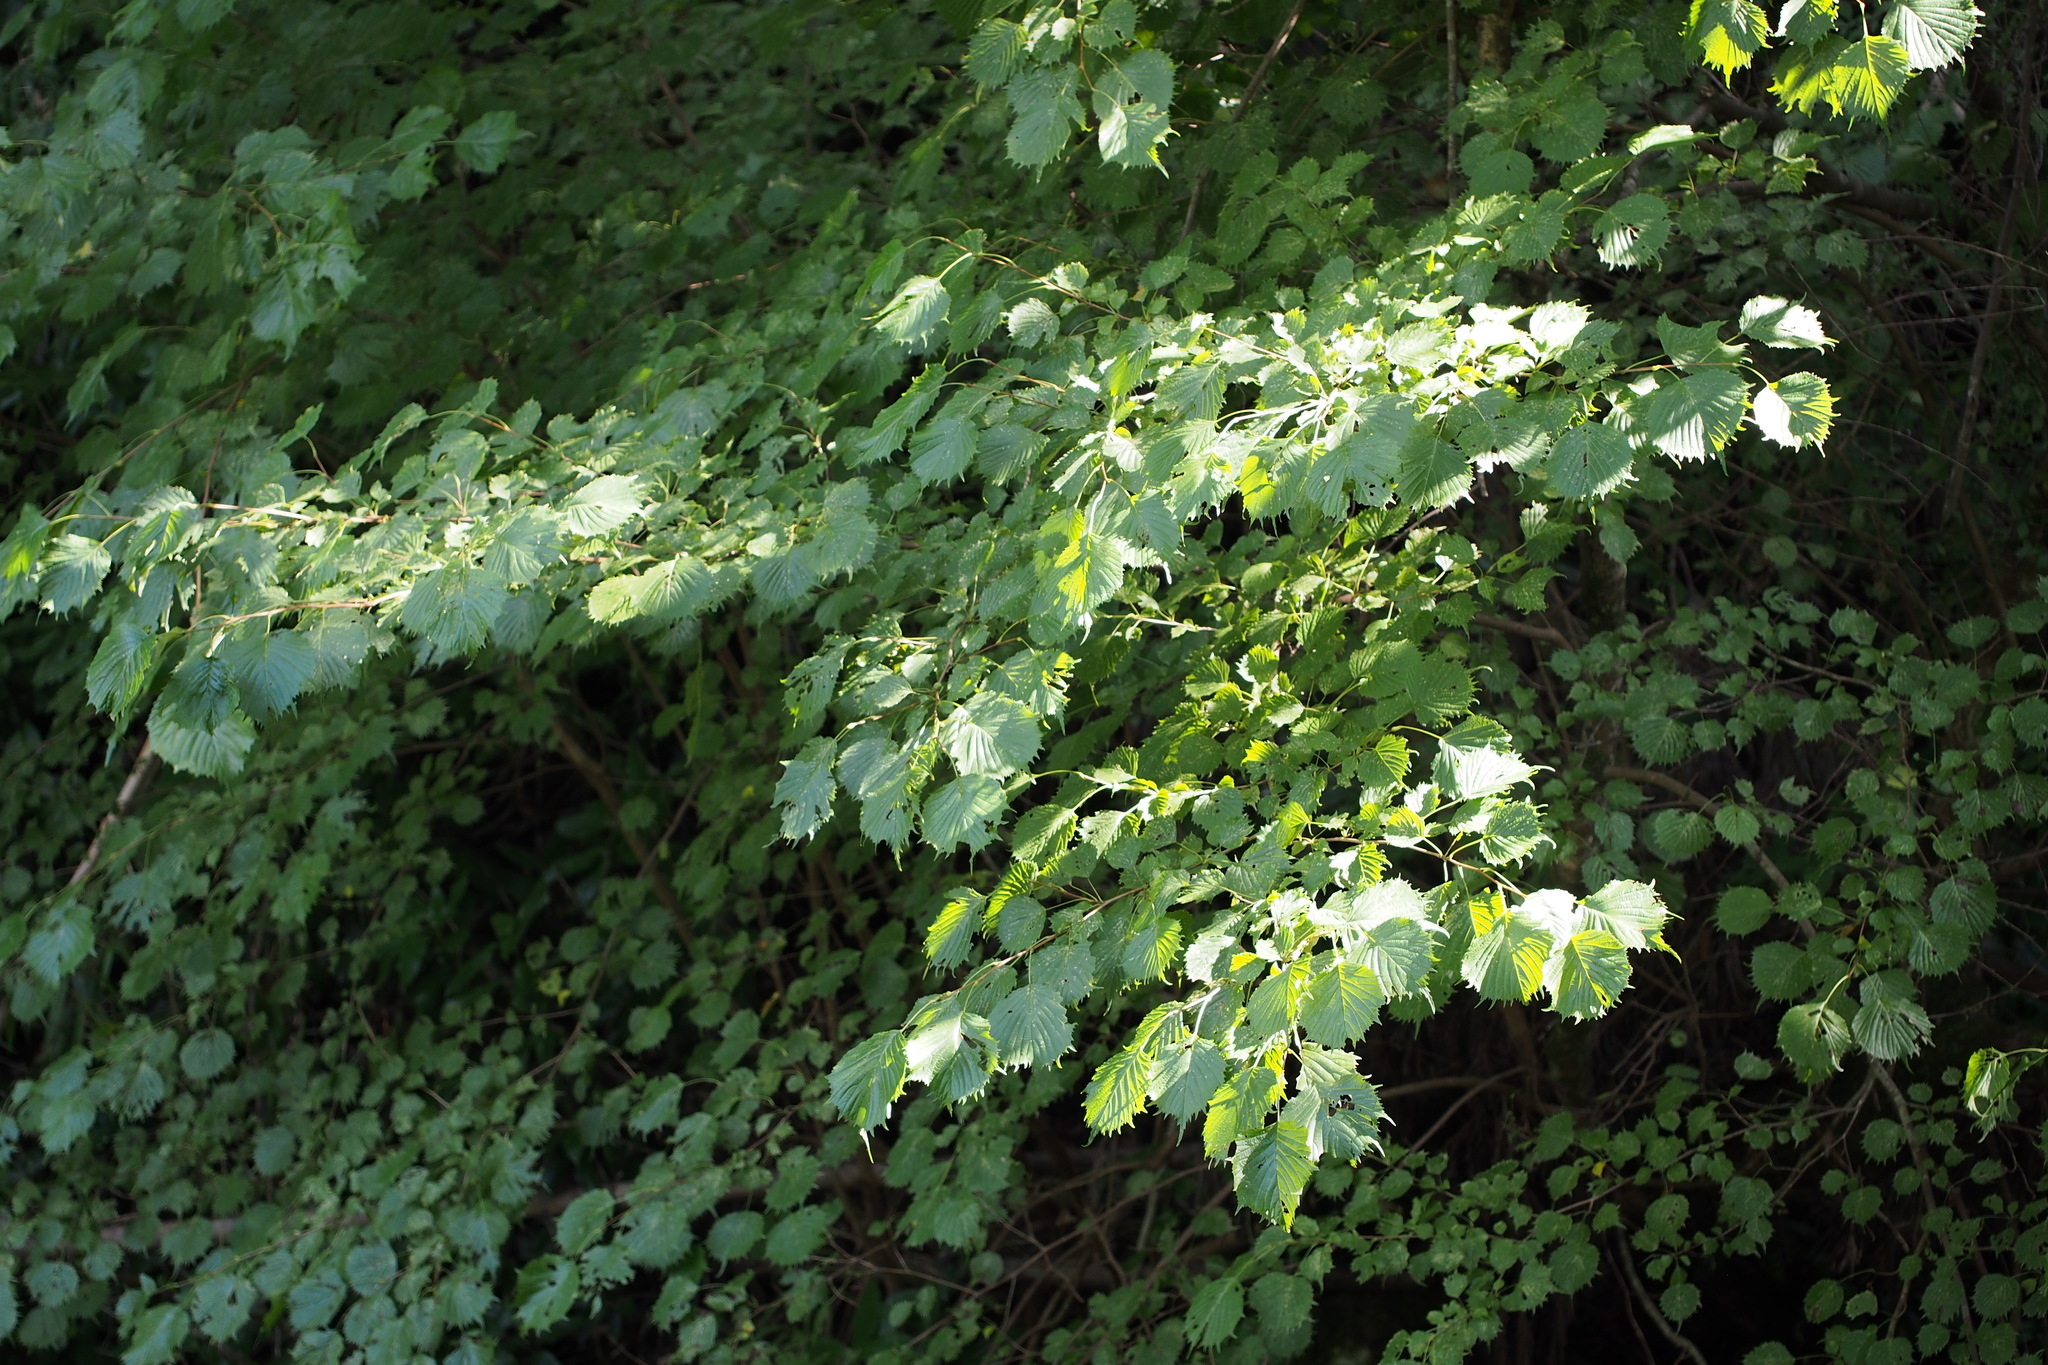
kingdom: Plantae
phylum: Tracheophyta
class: Magnoliopsida
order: Ranunculales
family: Eupteleaceae
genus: Euptelea
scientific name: Euptelea polyandra
